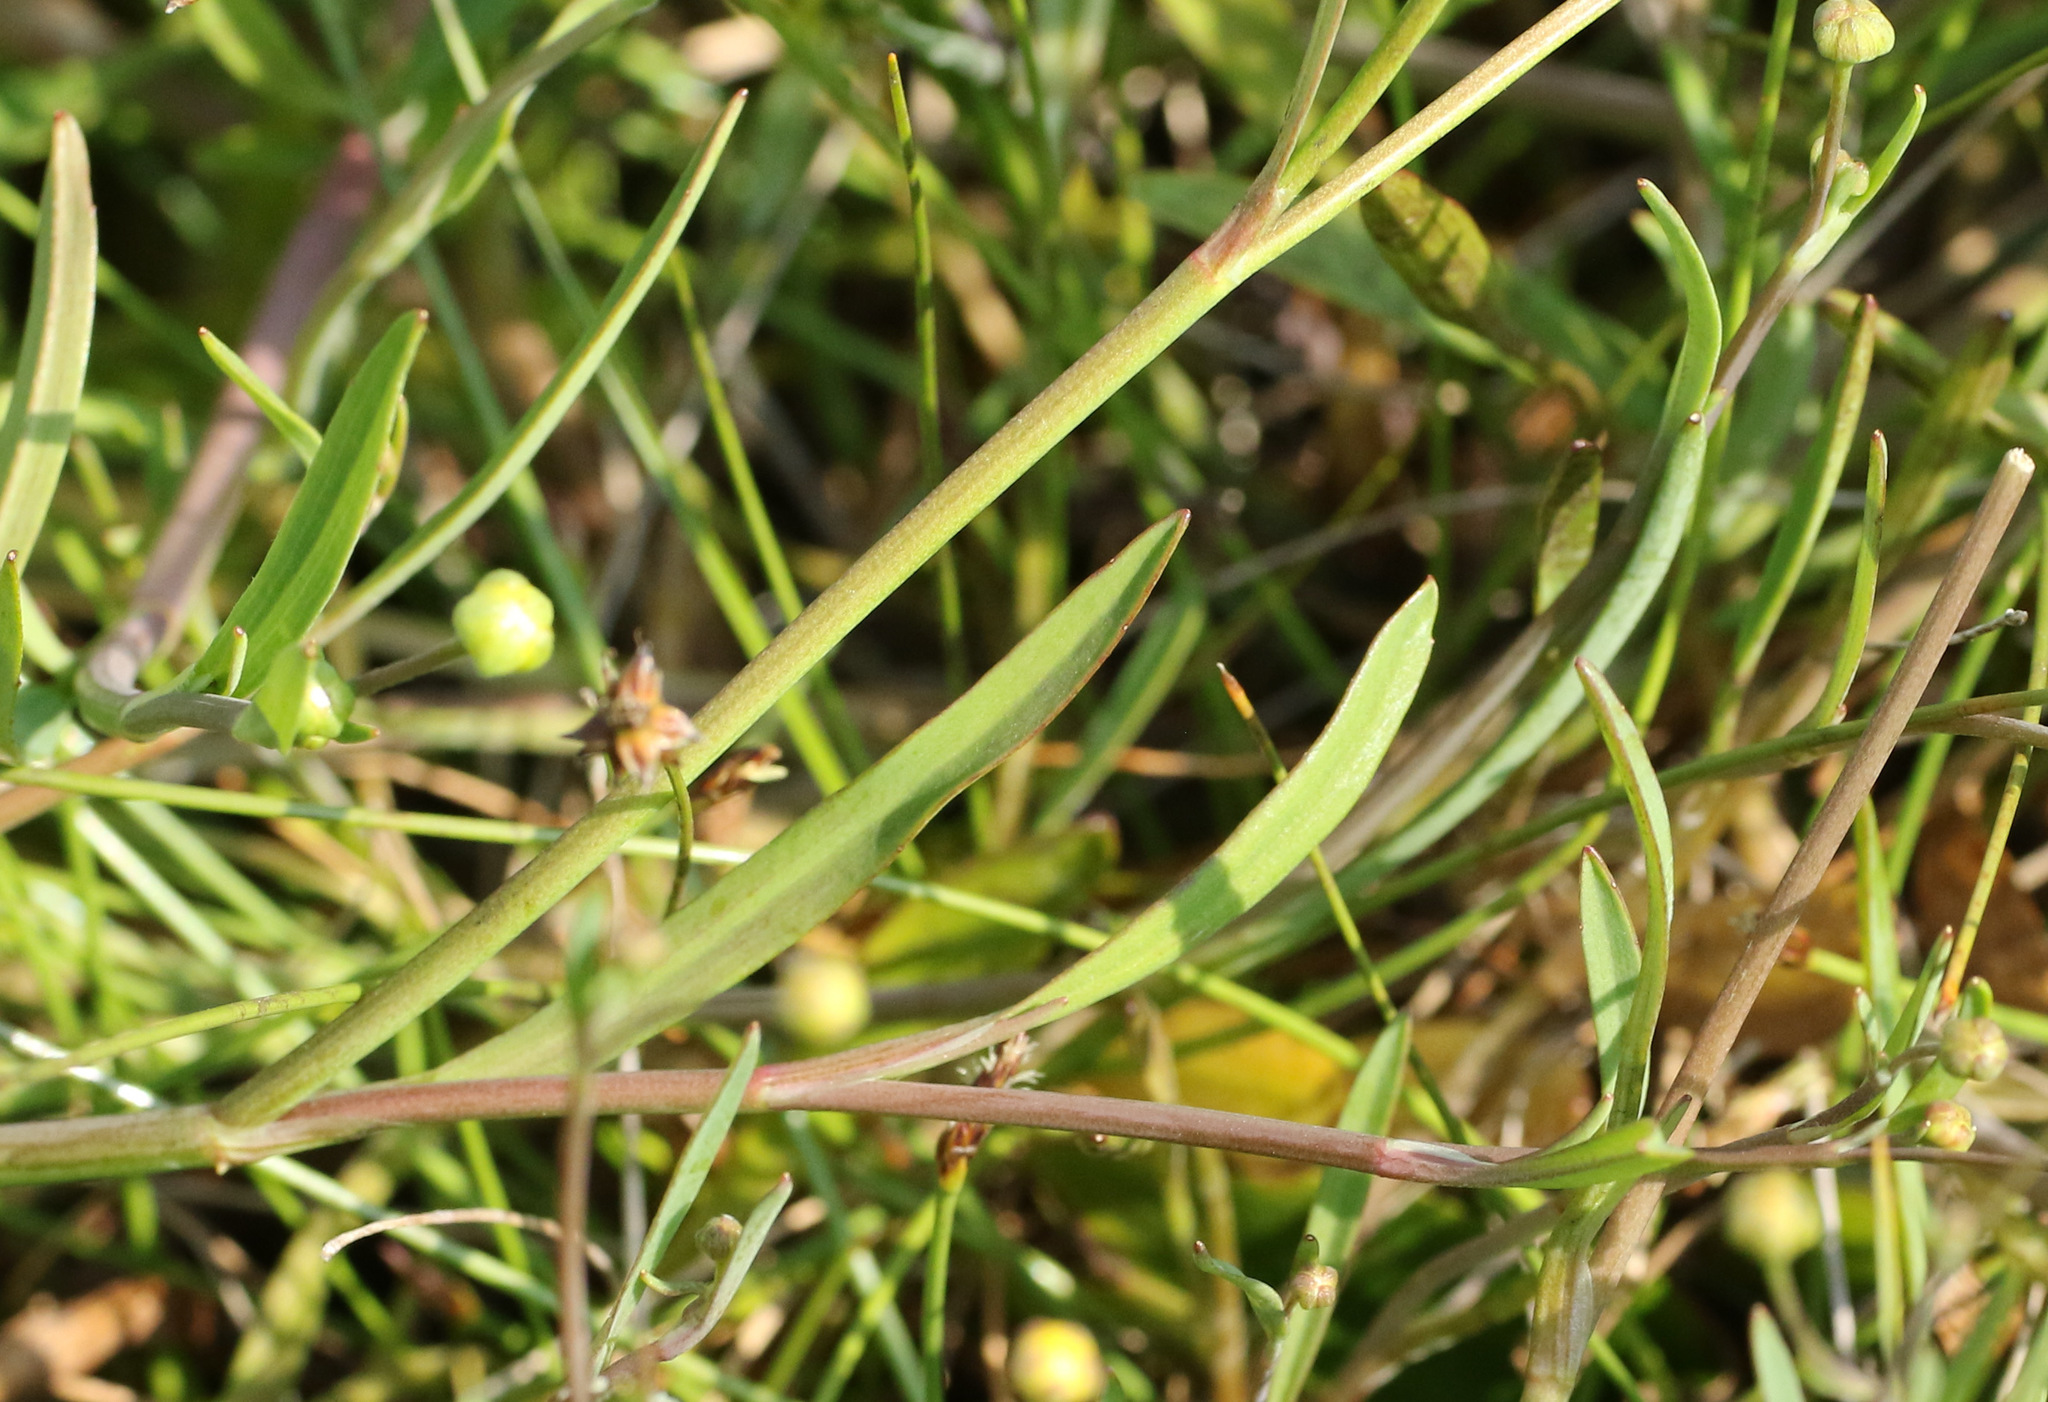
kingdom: Plantae
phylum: Tracheophyta
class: Magnoliopsida
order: Ranunculales
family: Ranunculaceae
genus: Ranunculus
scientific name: Ranunculus flammula
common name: Lesser spearwort
